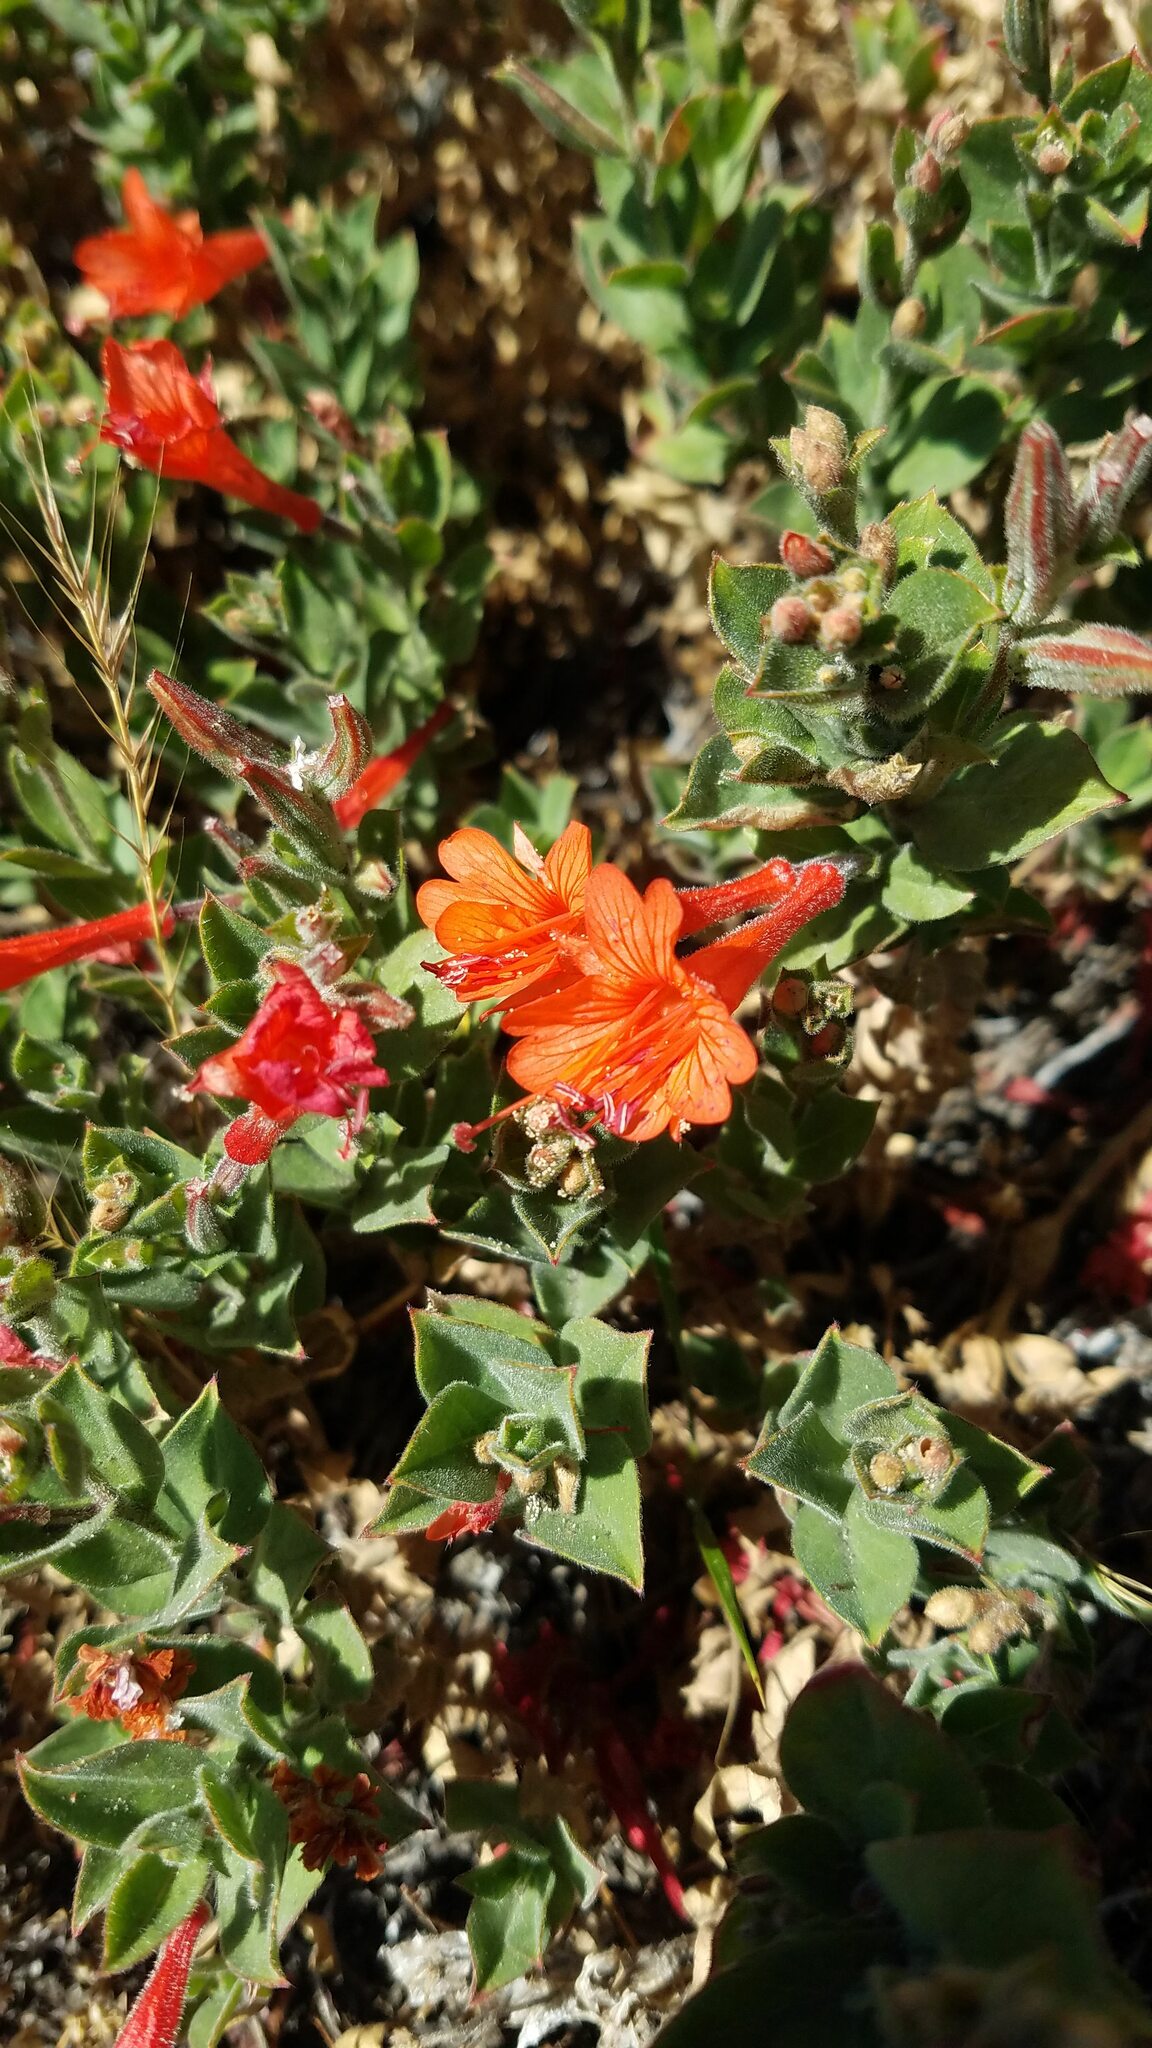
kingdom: Plantae
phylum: Tracheophyta
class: Magnoliopsida
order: Myrtales
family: Onagraceae
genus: Epilobium
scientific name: Epilobium canum
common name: California-fuchsia
